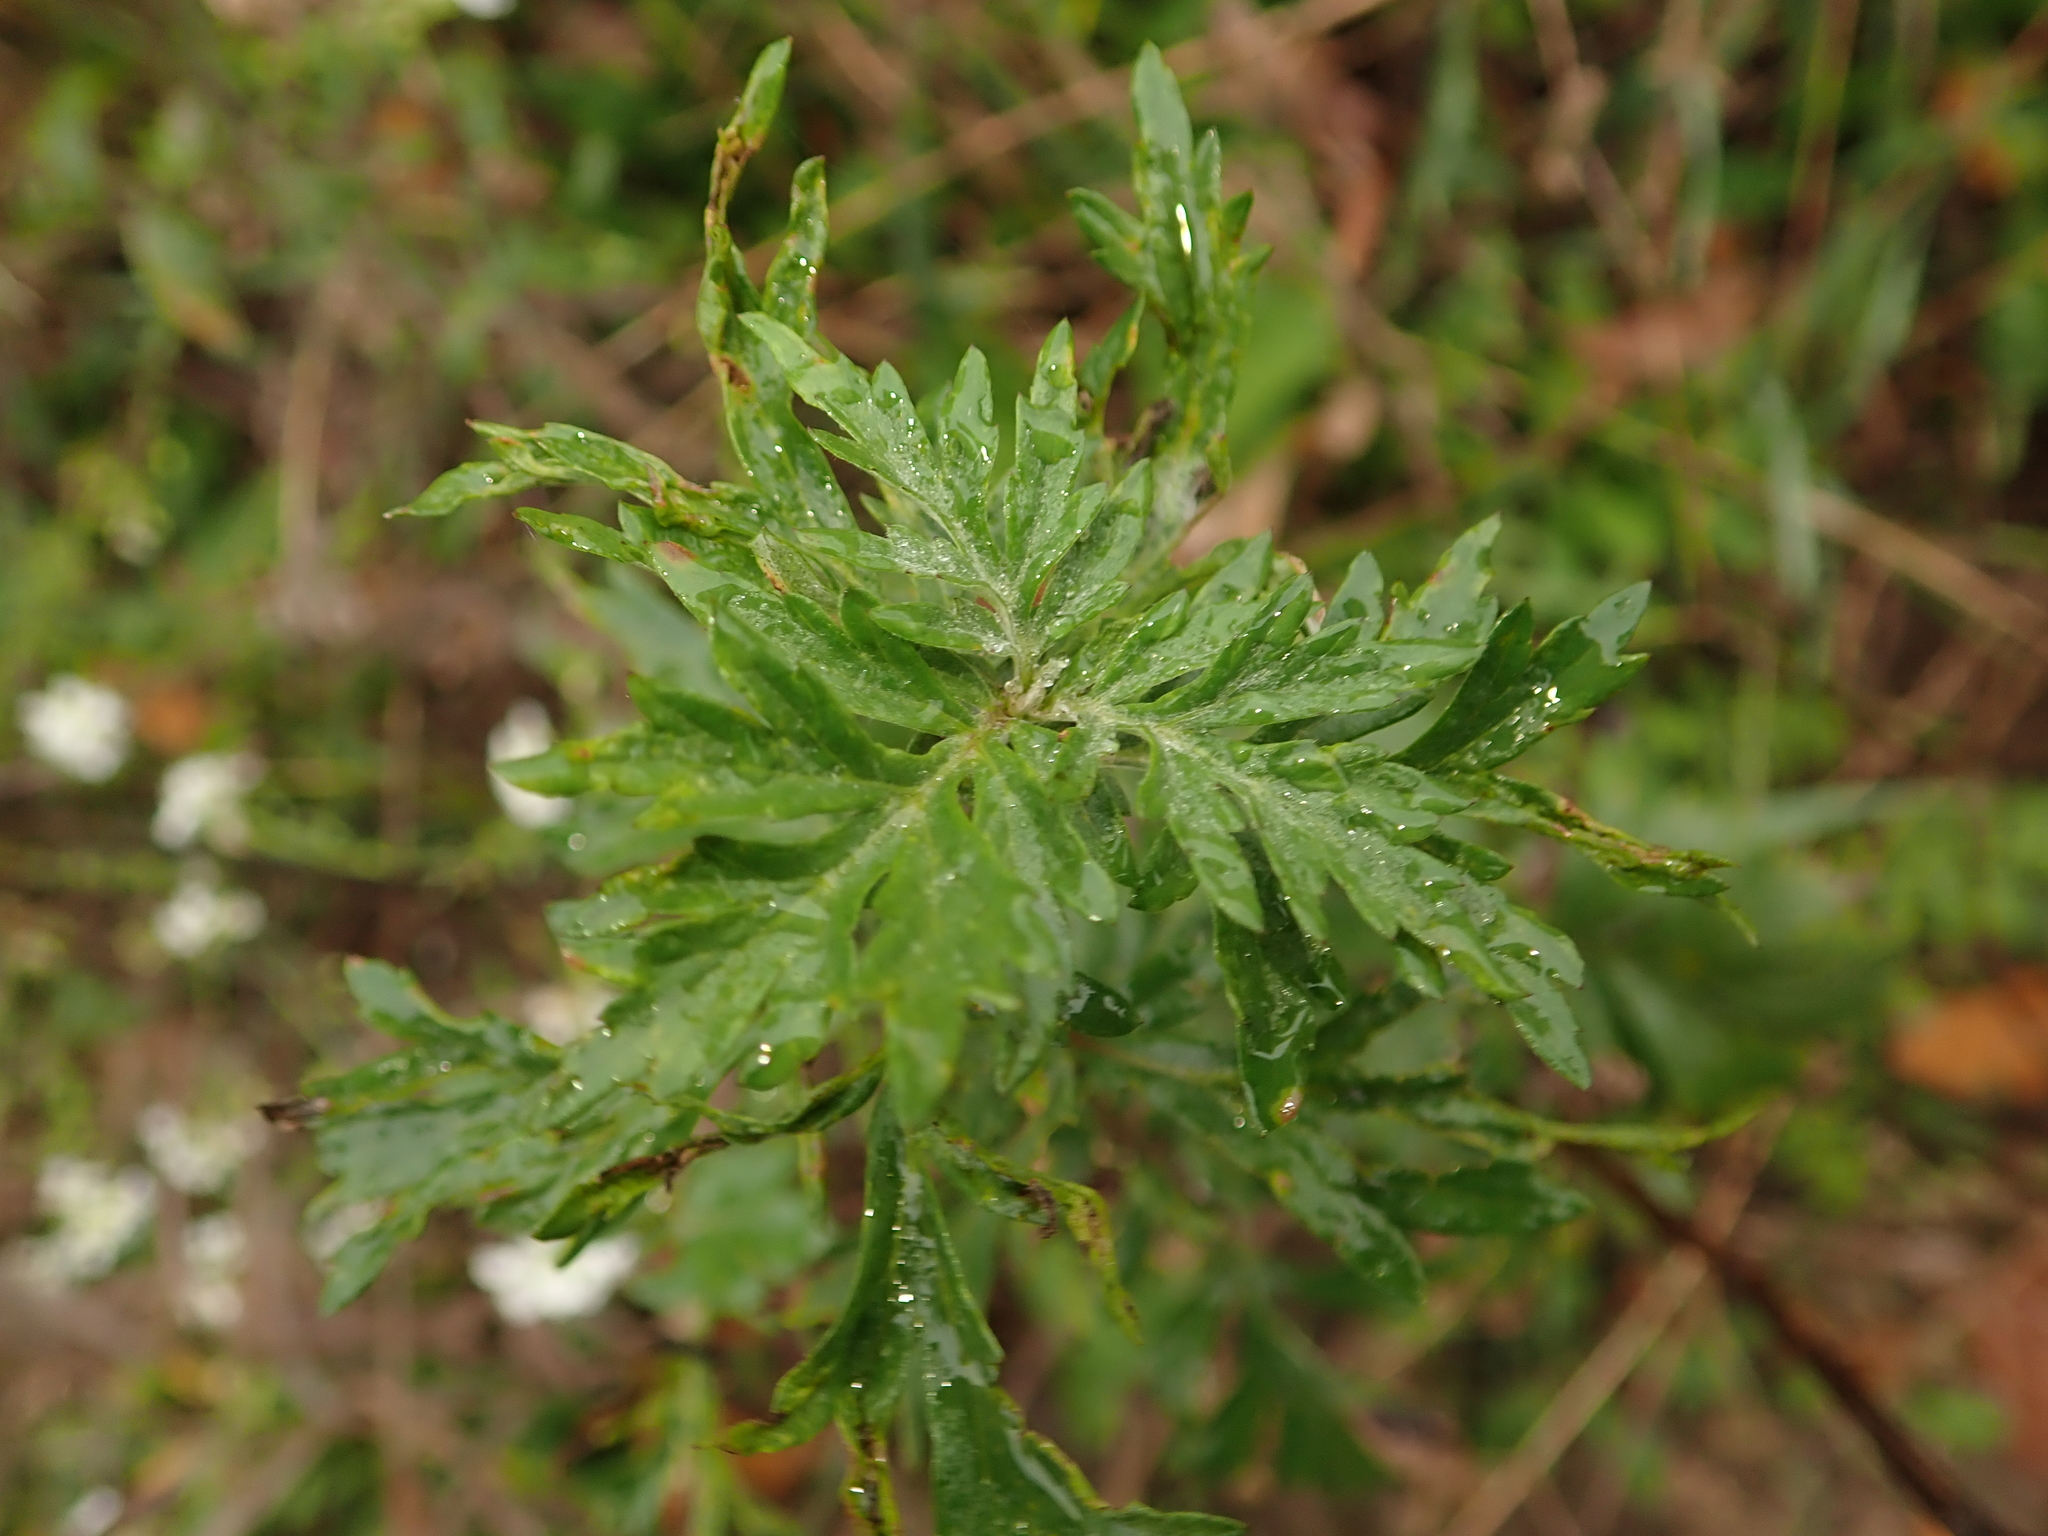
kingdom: Plantae
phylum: Tracheophyta
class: Magnoliopsida
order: Asterales
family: Asteraceae
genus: Artemisia
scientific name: Artemisia vulgaris
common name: Mugwort
